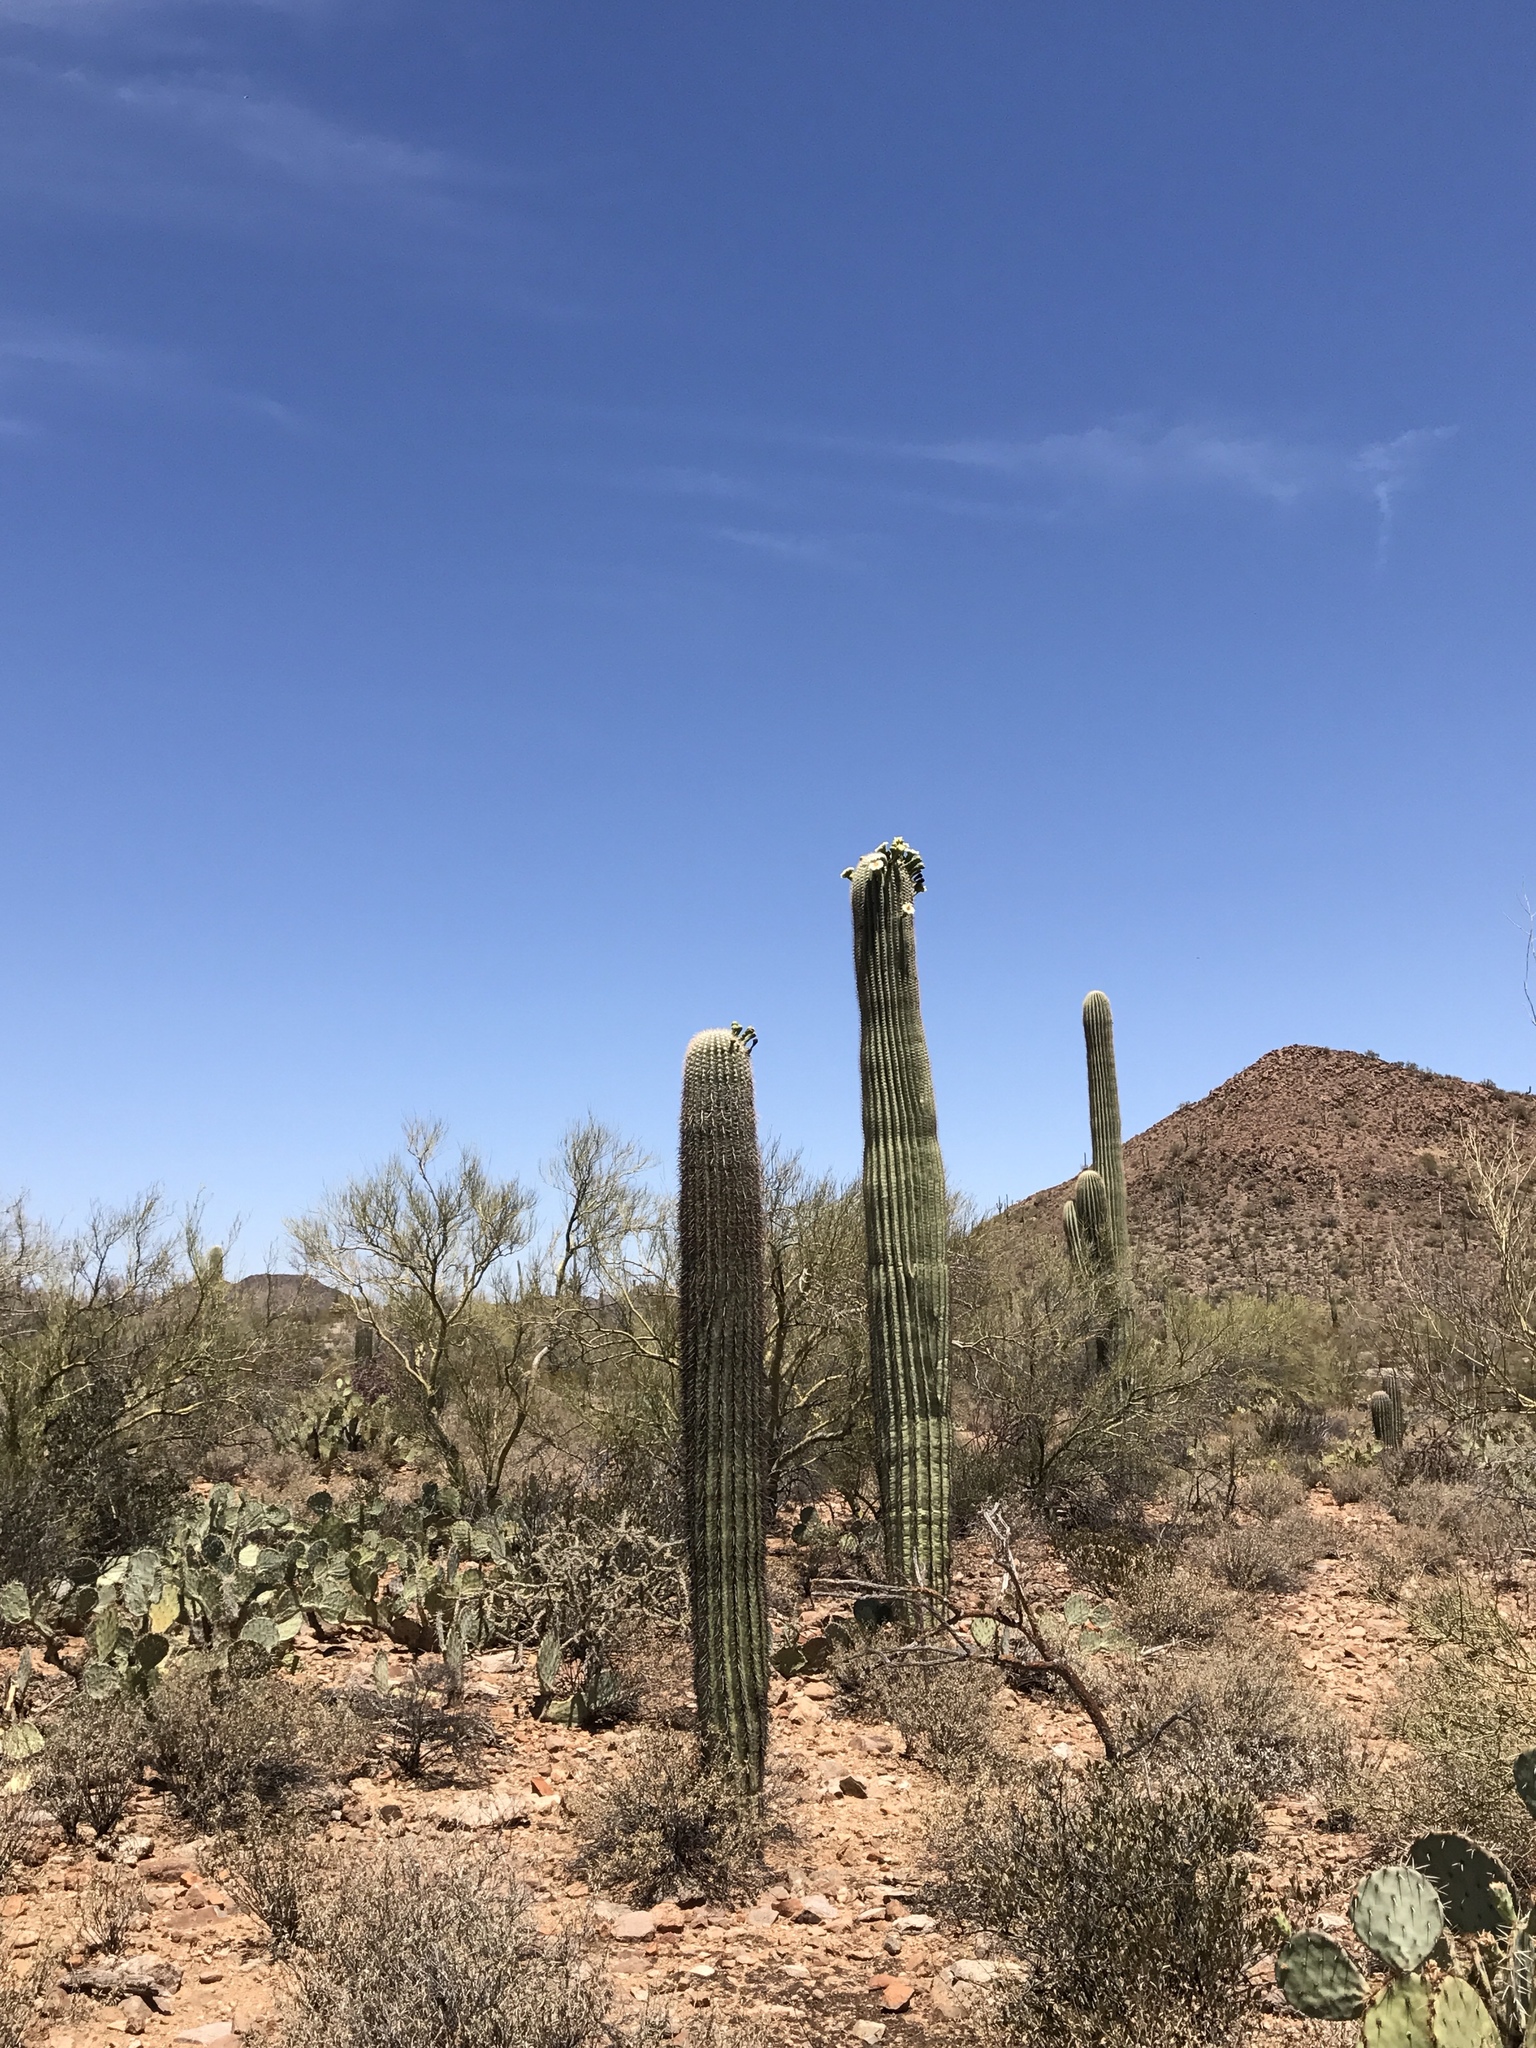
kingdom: Plantae
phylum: Tracheophyta
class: Magnoliopsida
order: Caryophyllales
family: Cactaceae
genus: Carnegiea
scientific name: Carnegiea gigantea
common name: Saguaro
